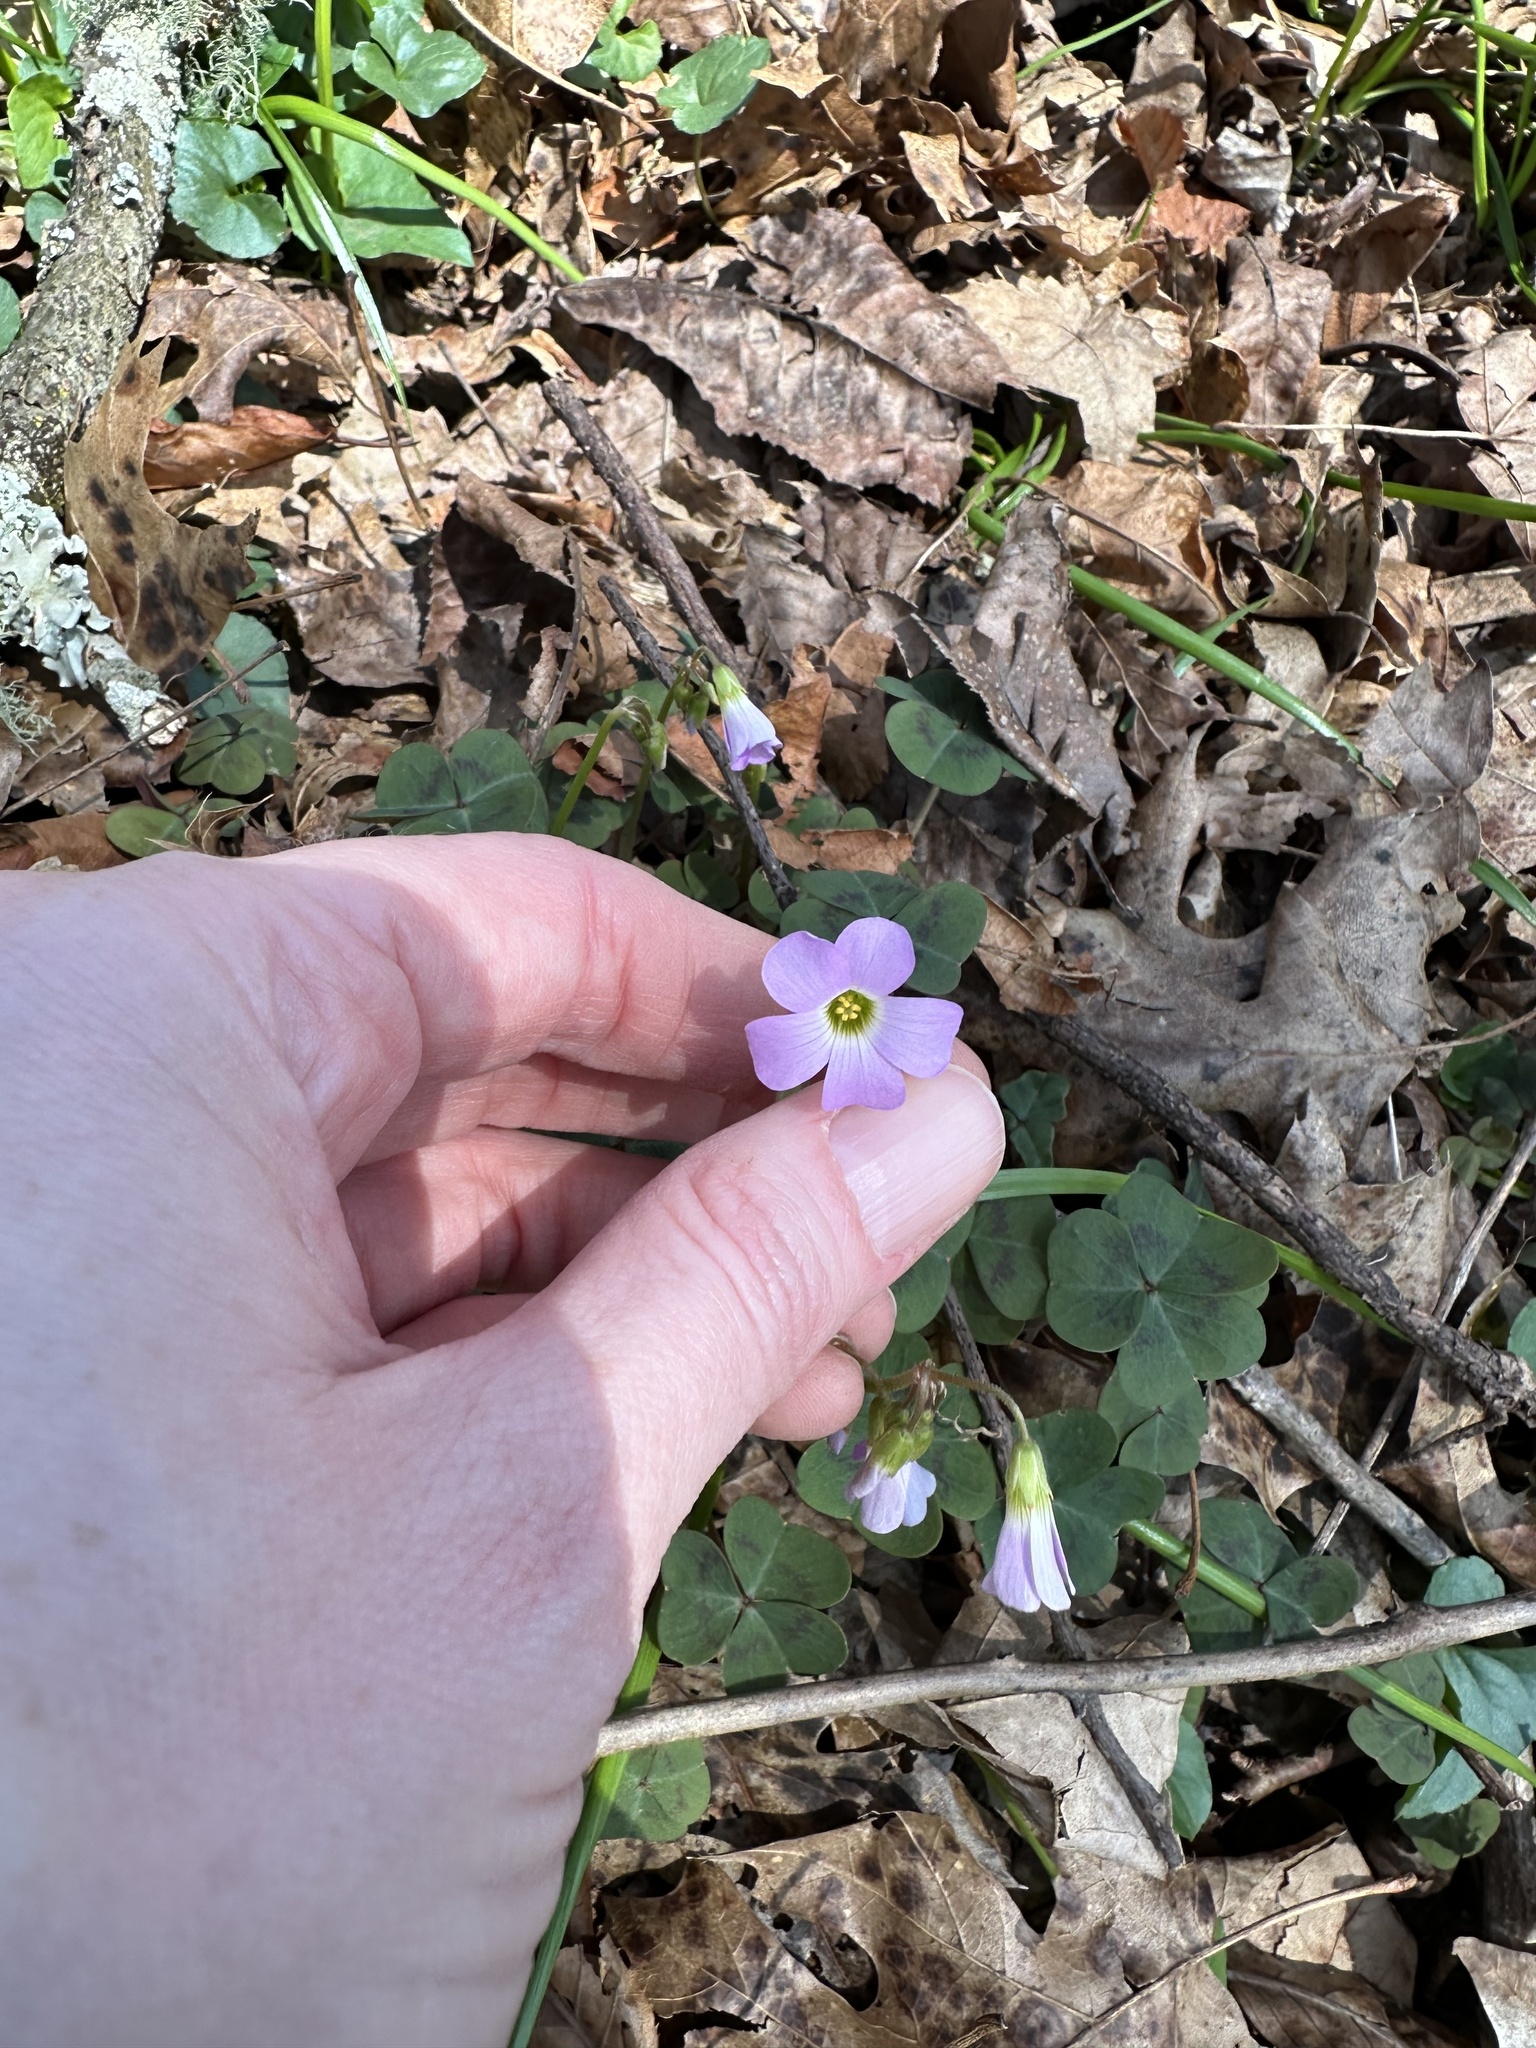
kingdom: Plantae
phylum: Tracheophyta
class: Magnoliopsida
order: Oxalidales
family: Oxalidaceae
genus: Oxalis
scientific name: Oxalis violacea
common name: Violet wood-sorrel
